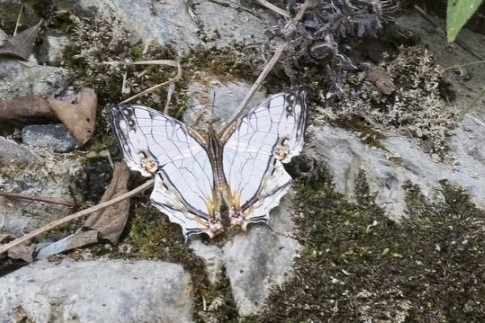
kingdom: Animalia
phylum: Arthropoda
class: Insecta
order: Lepidoptera
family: Nymphalidae
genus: Cyrestis
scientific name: Cyrestis thyodamas
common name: Common mapwing
